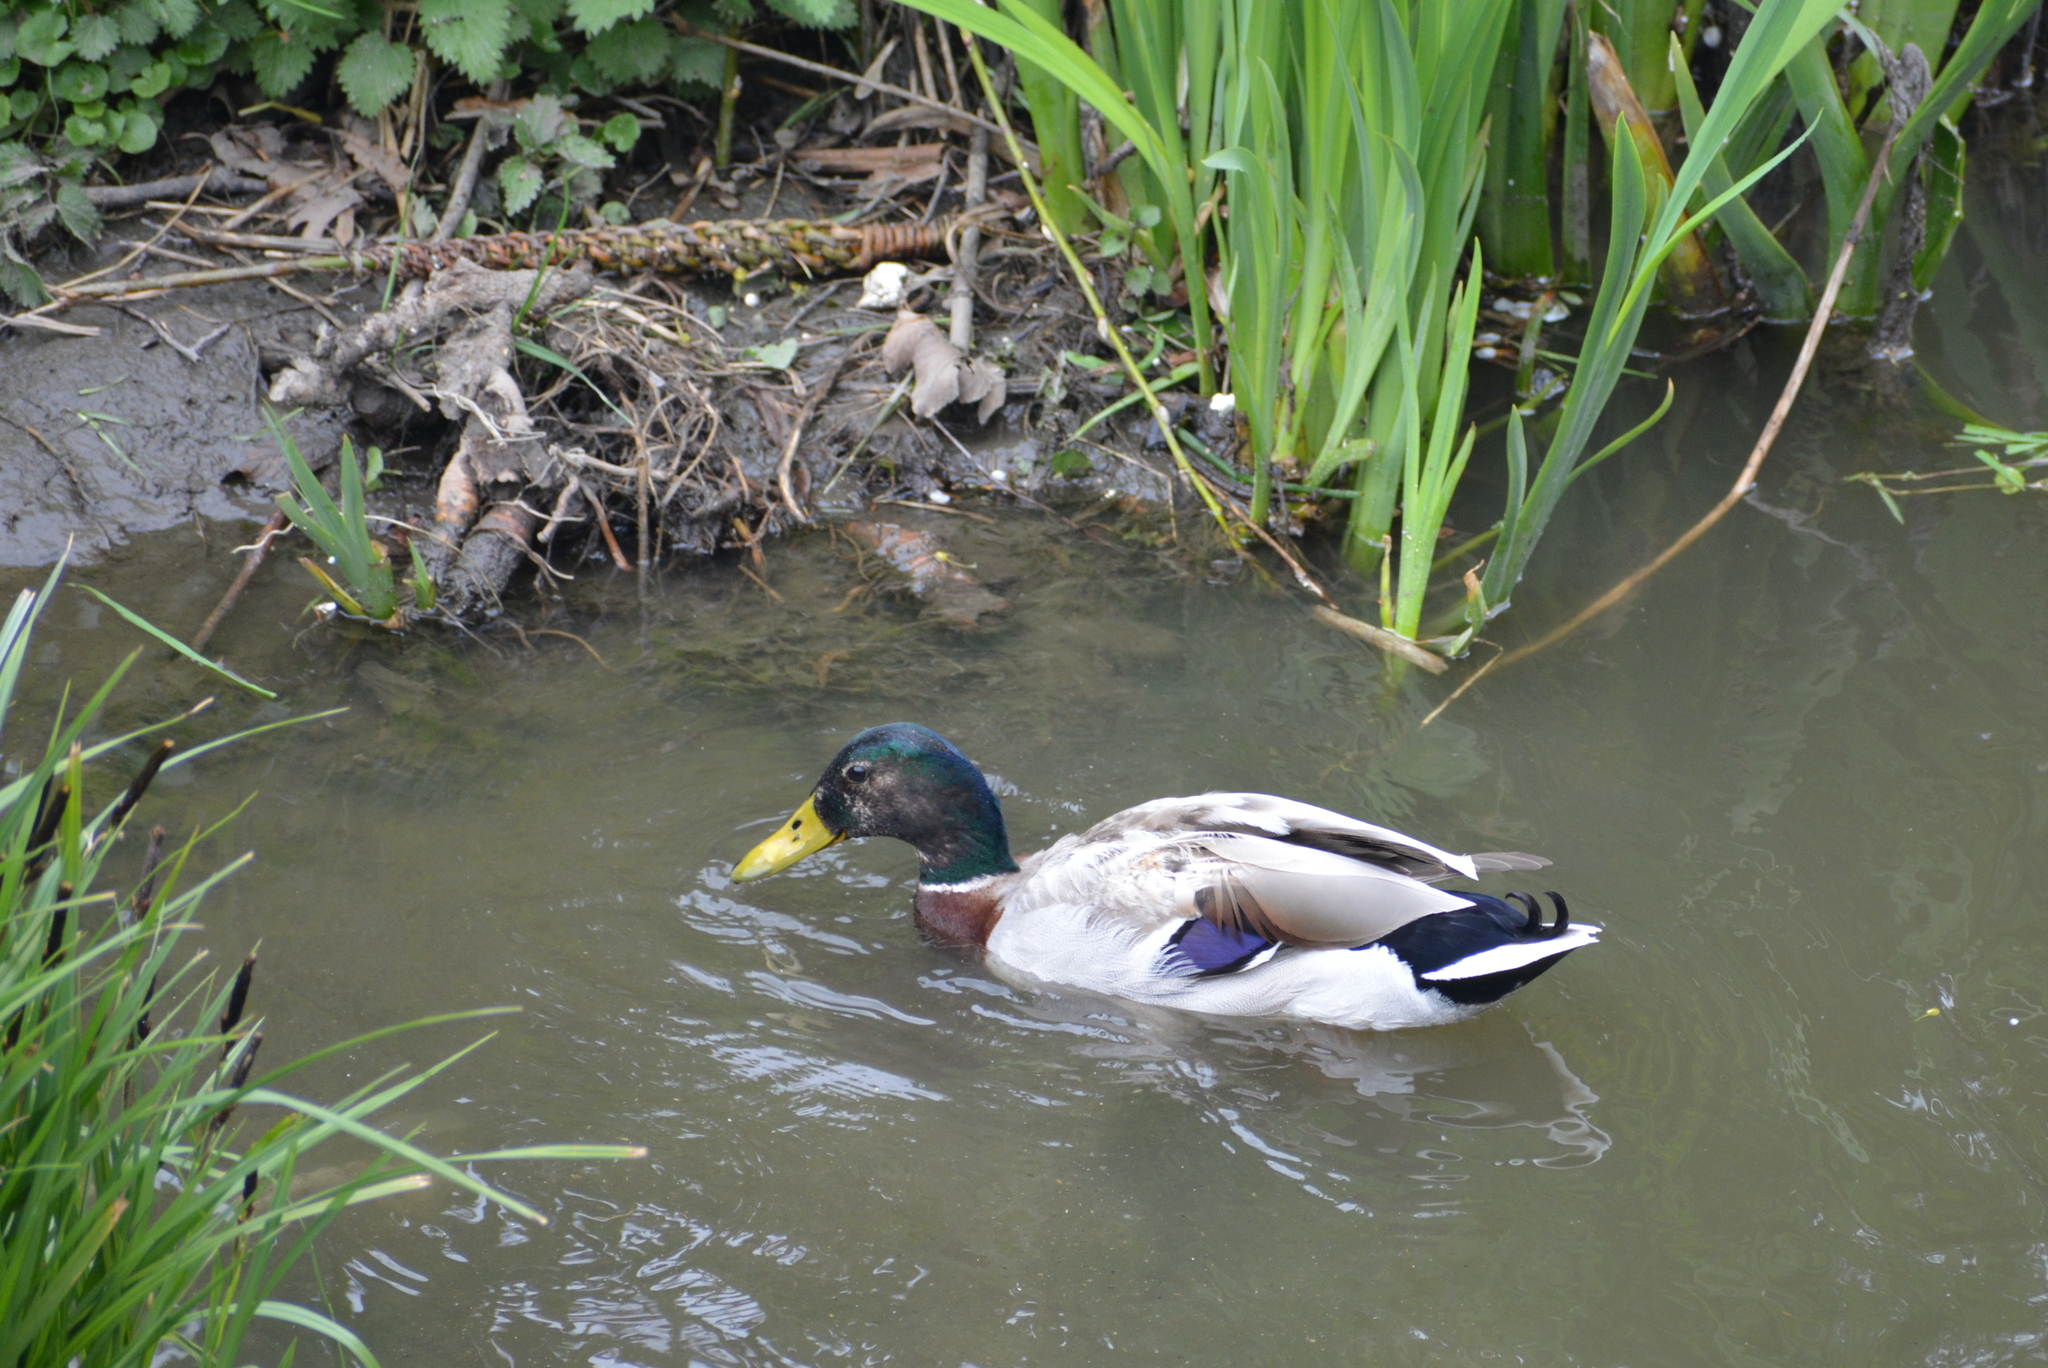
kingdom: Animalia
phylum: Chordata
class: Aves
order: Anseriformes
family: Anatidae
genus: Anas
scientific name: Anas platyrhynchos
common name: Mallard
